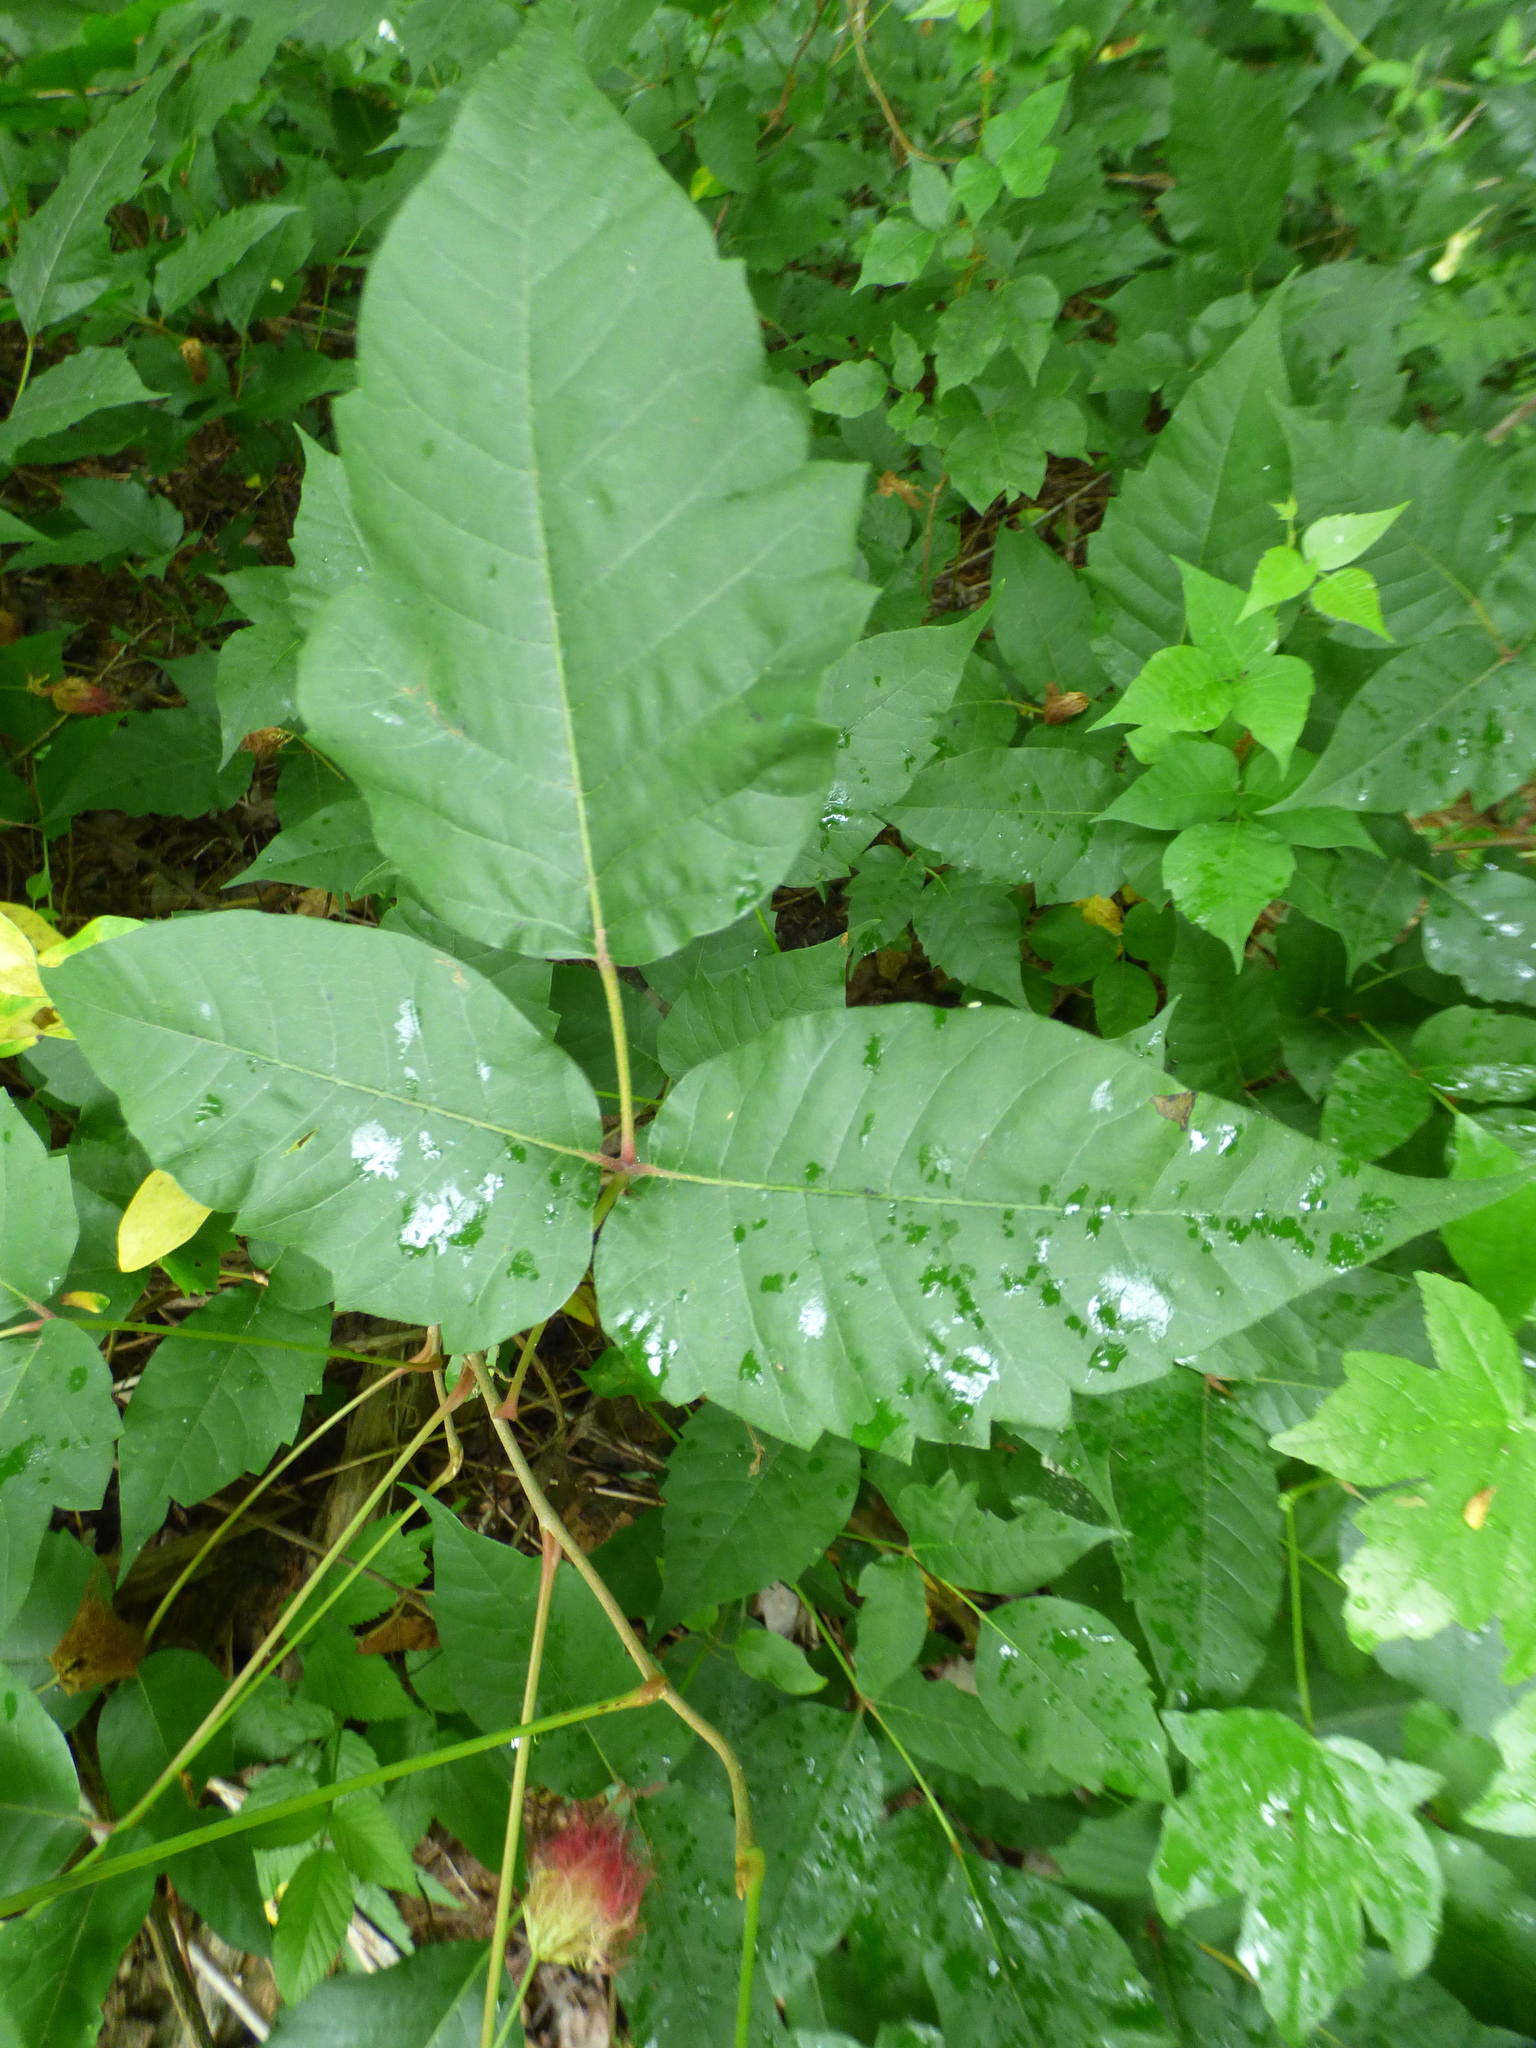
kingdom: Plantae
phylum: Tracheophyta
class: Magnoliopsida
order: Sapindales
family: Anacardiaceae
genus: Toxicodendron
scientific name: Toxicodendron radicans
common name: Poison ivy
